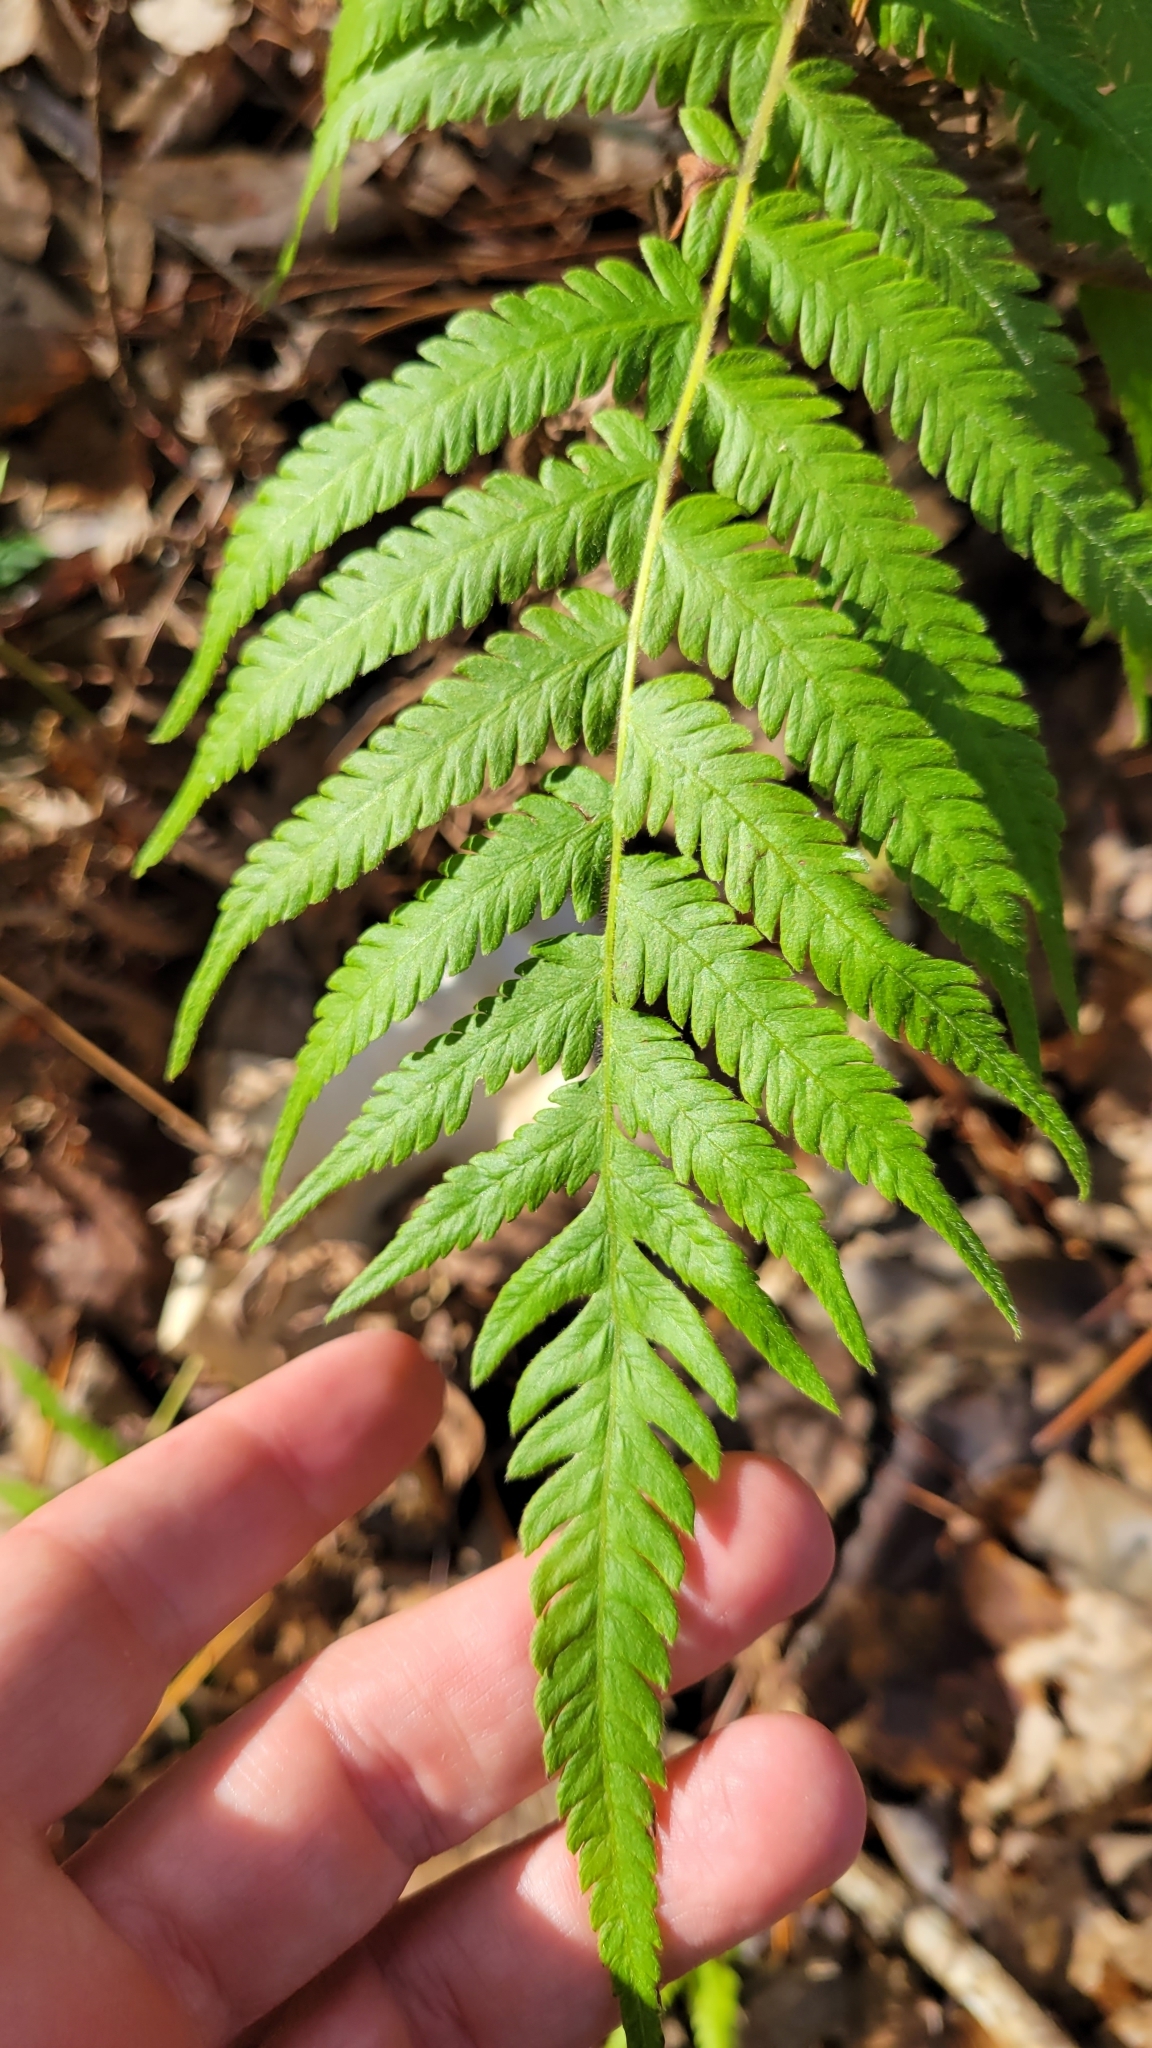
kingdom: Plantae
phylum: Tracheophyta
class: Polypodiopsida
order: Polypodiales
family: Thelypteridaceae
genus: Pelazoneuron
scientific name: Pelazoneuron kunthii
